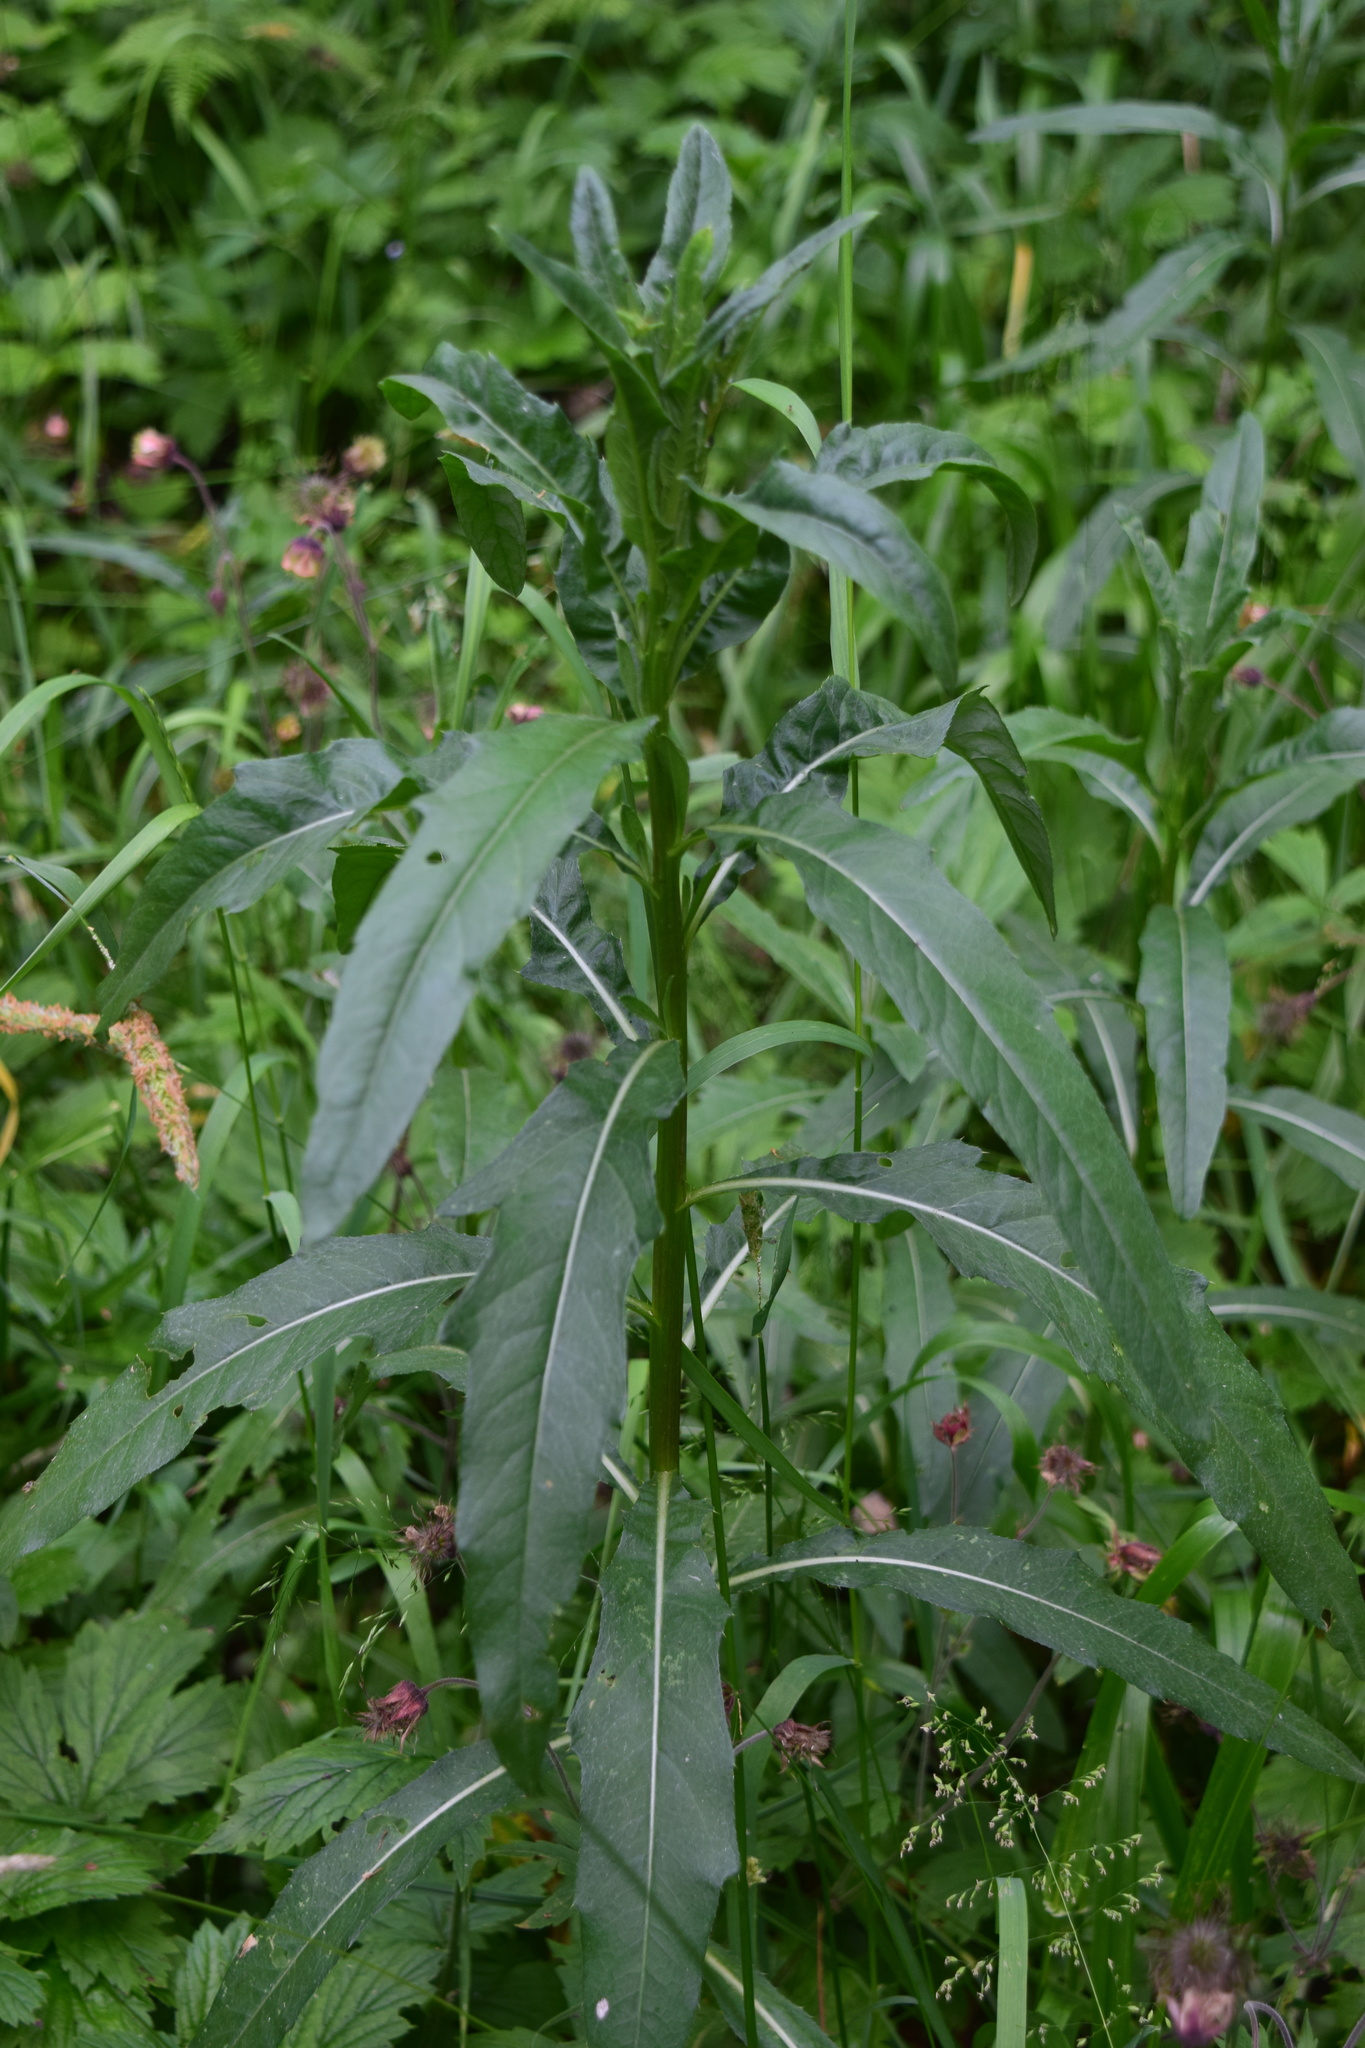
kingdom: Plantae
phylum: Tracheophyta
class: Magnoliopsida
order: Asterales
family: Asteraceae
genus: Cirsium
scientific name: Cirsium arvense
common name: Creeping thistle
